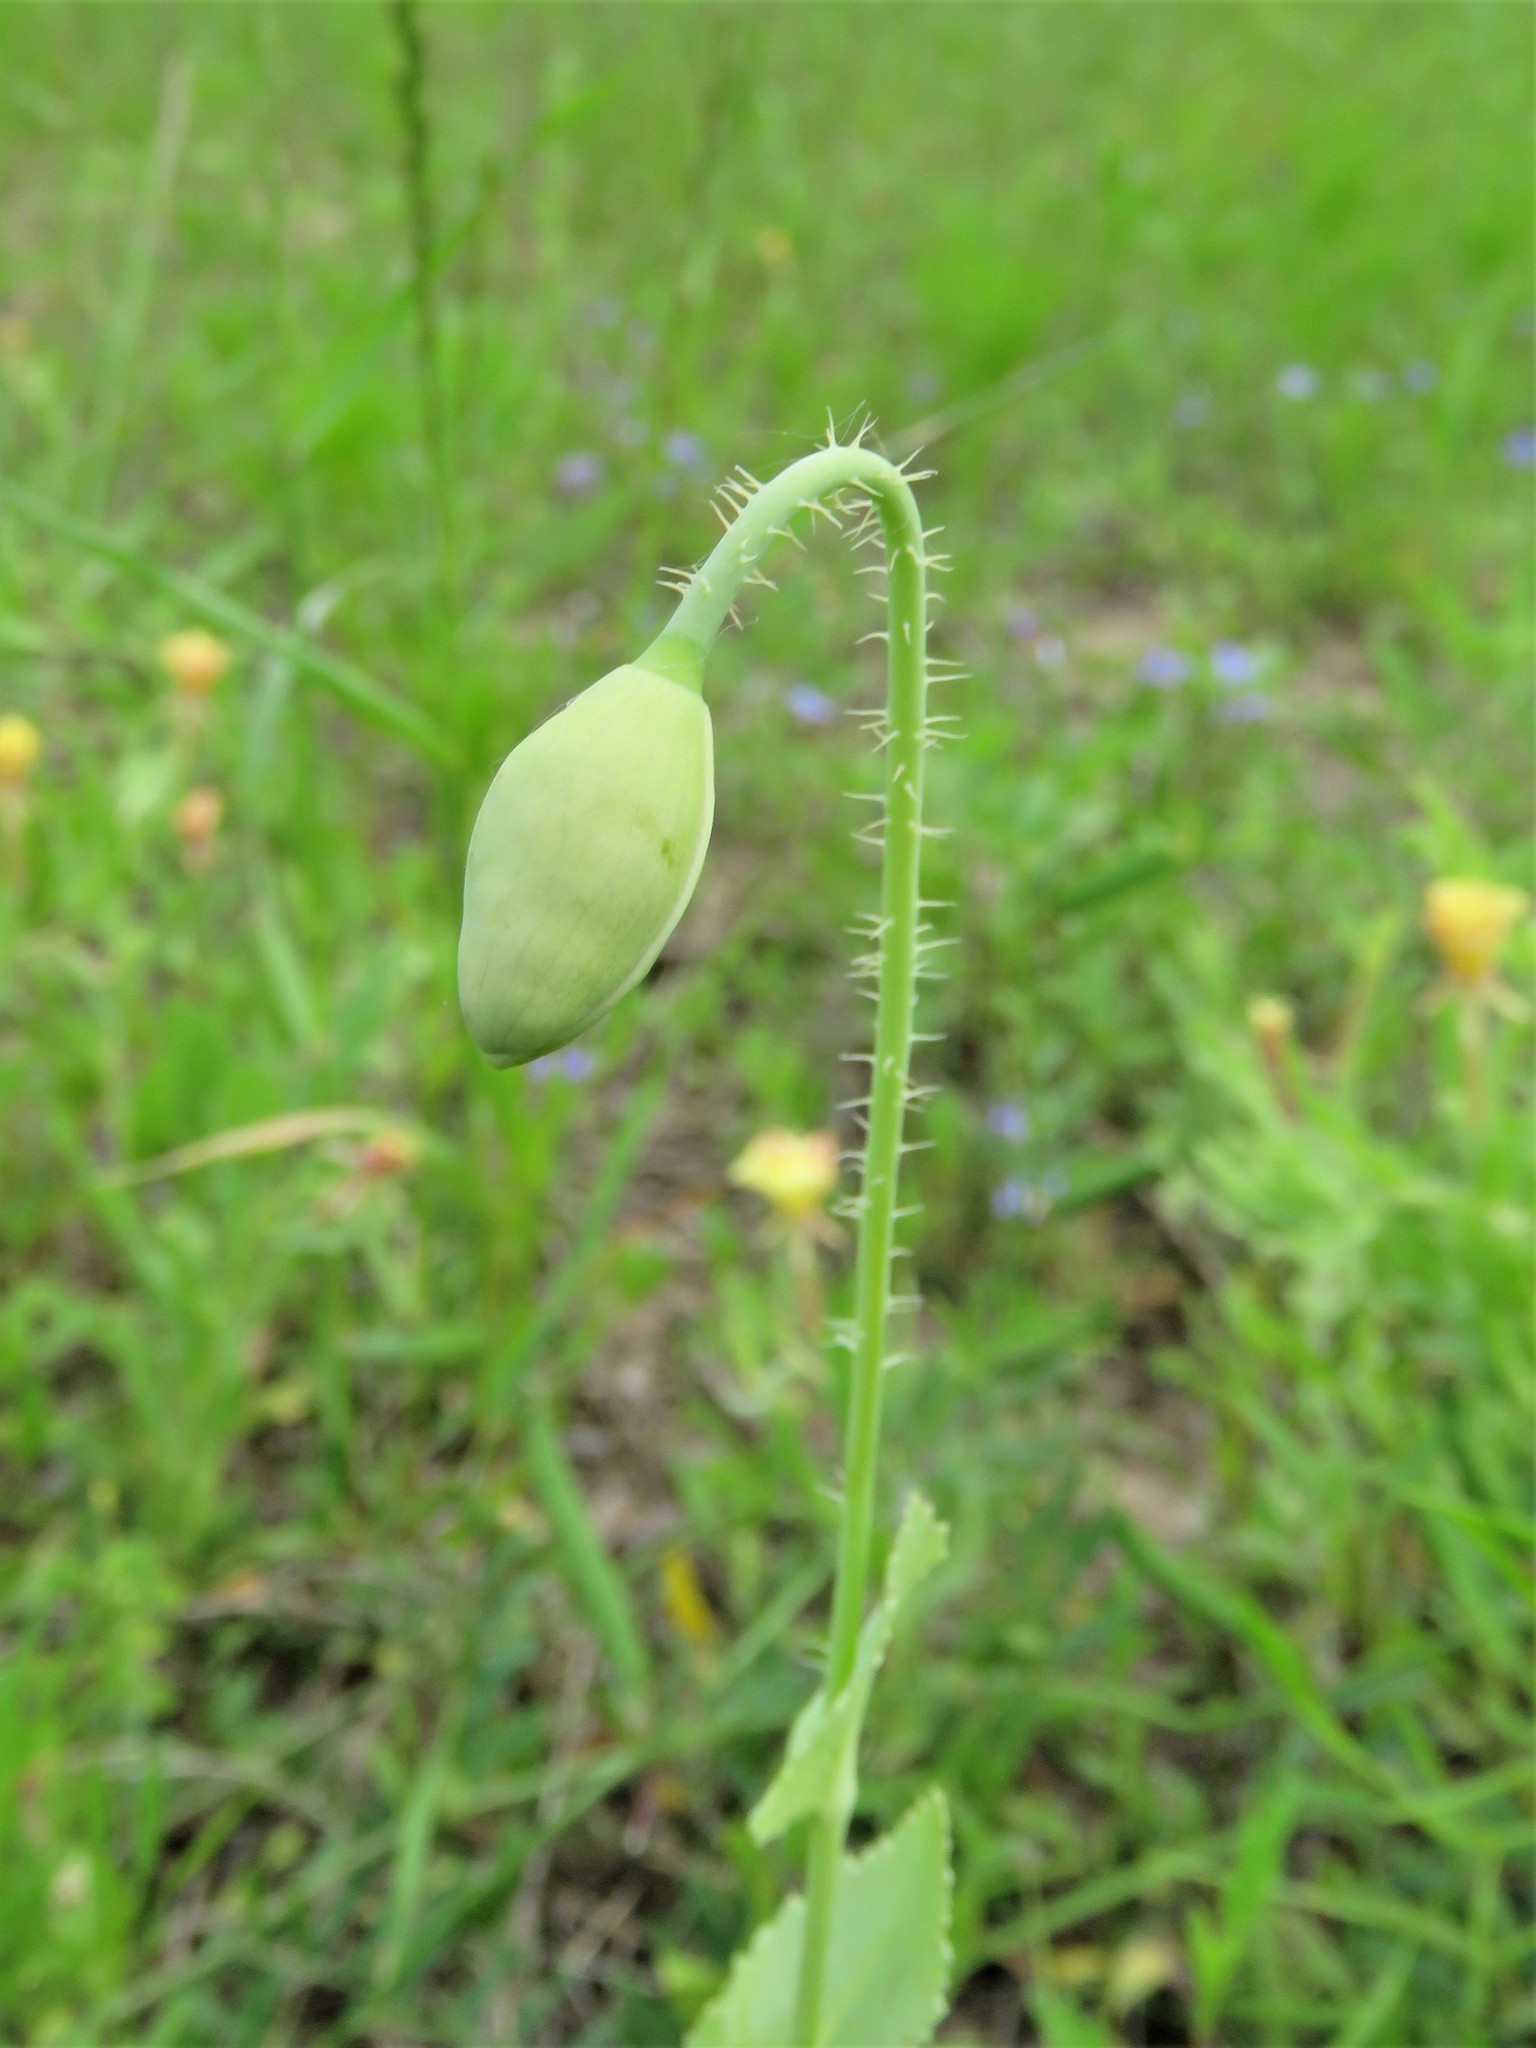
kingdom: Plantae
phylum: Tracheophyta
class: Magnoliopsida
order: Ranunculales
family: Papaveraceae
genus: Papaver
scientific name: Papaver somniferum
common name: Opium poppy
